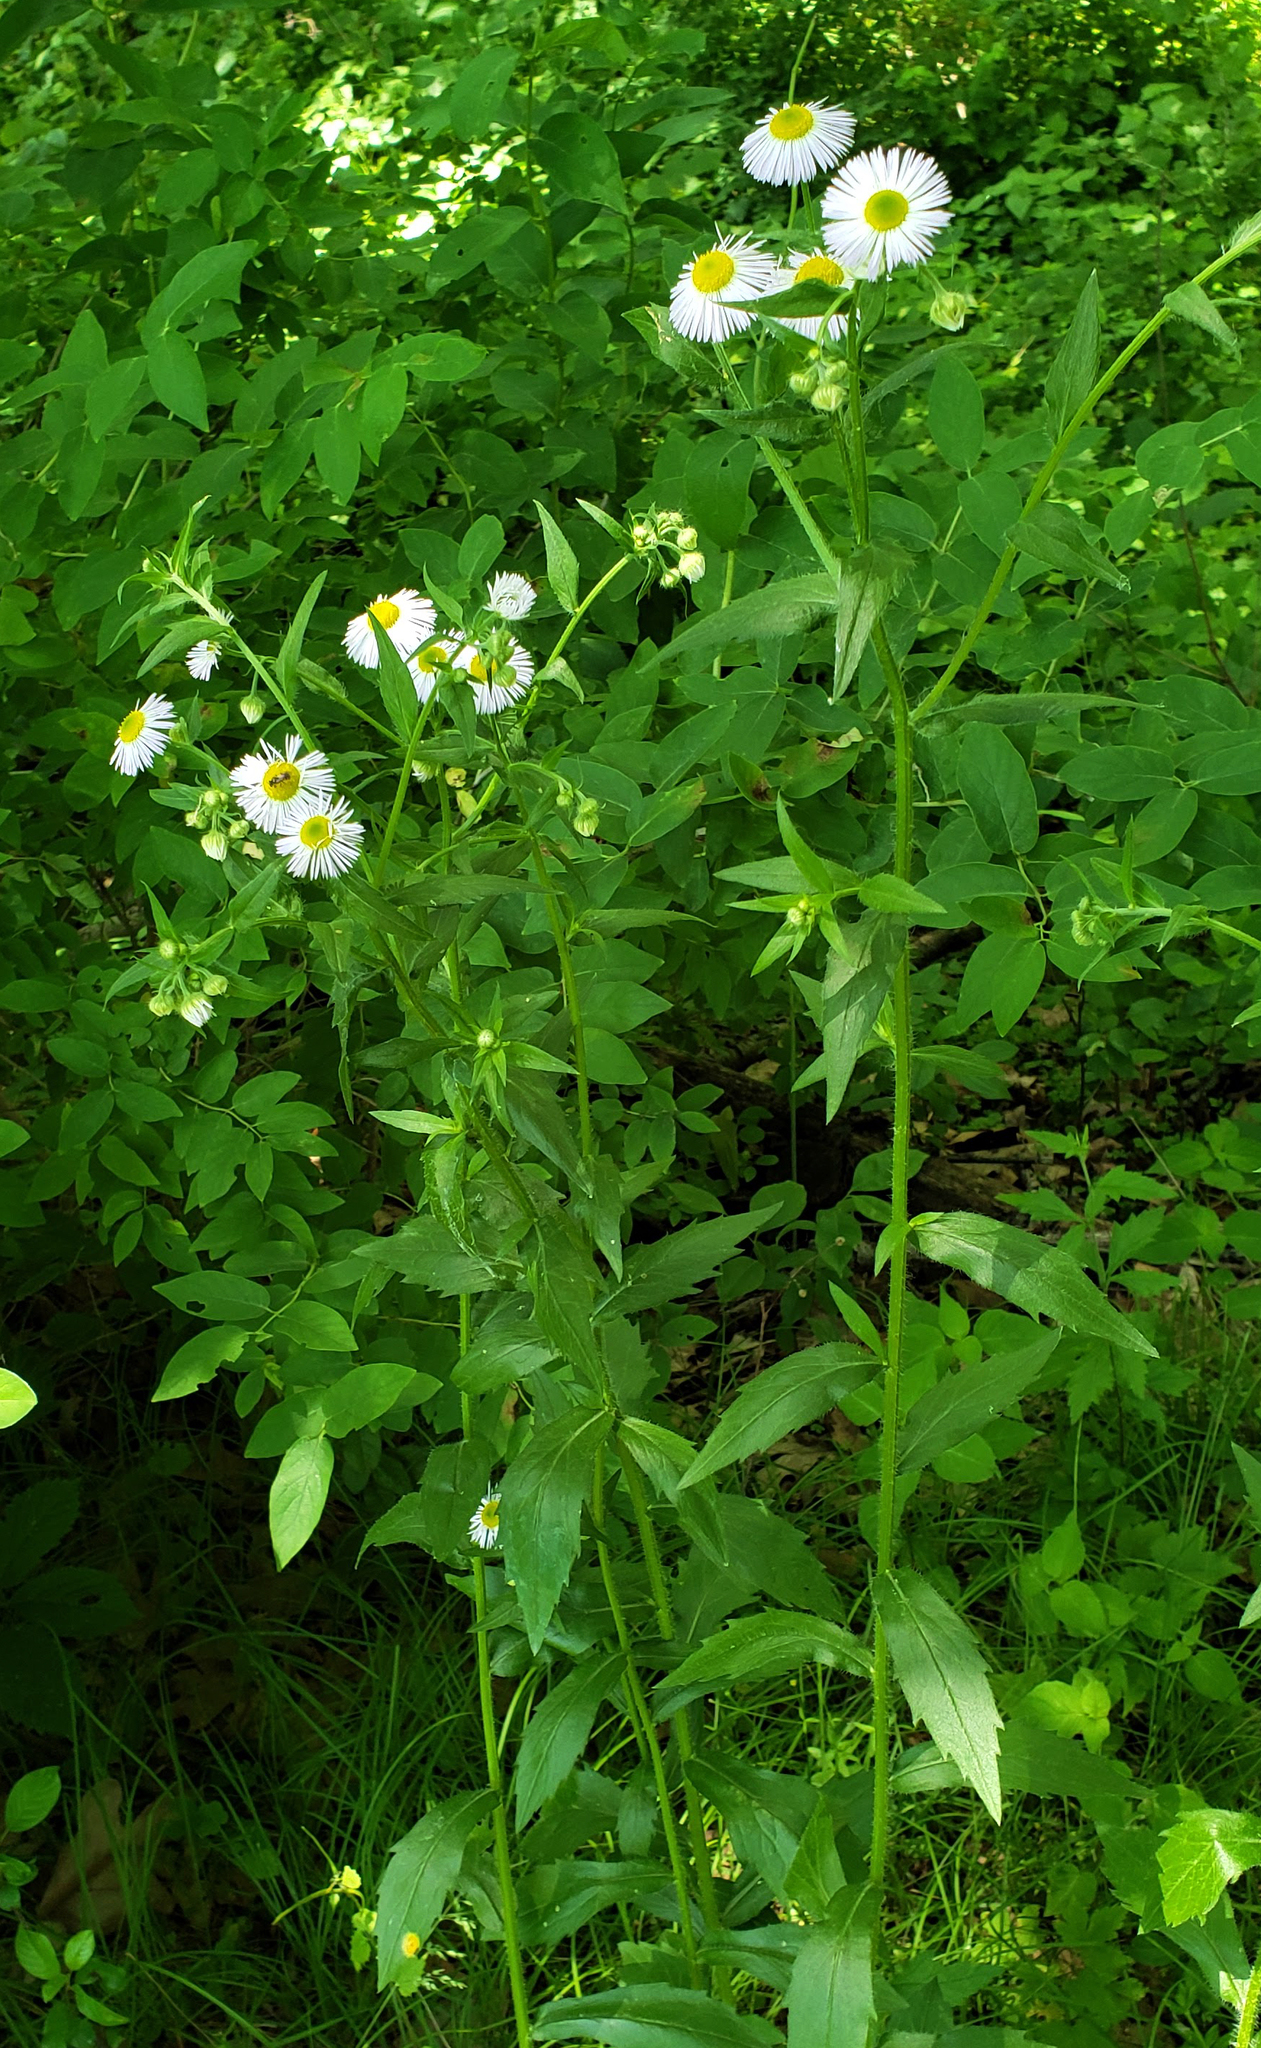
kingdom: Plantae
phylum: Tracheophyta
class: Magnoliopsida
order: Asterales
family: Asteraceae
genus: Erigeron
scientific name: Erigeron annuus
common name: Tall fleabane
